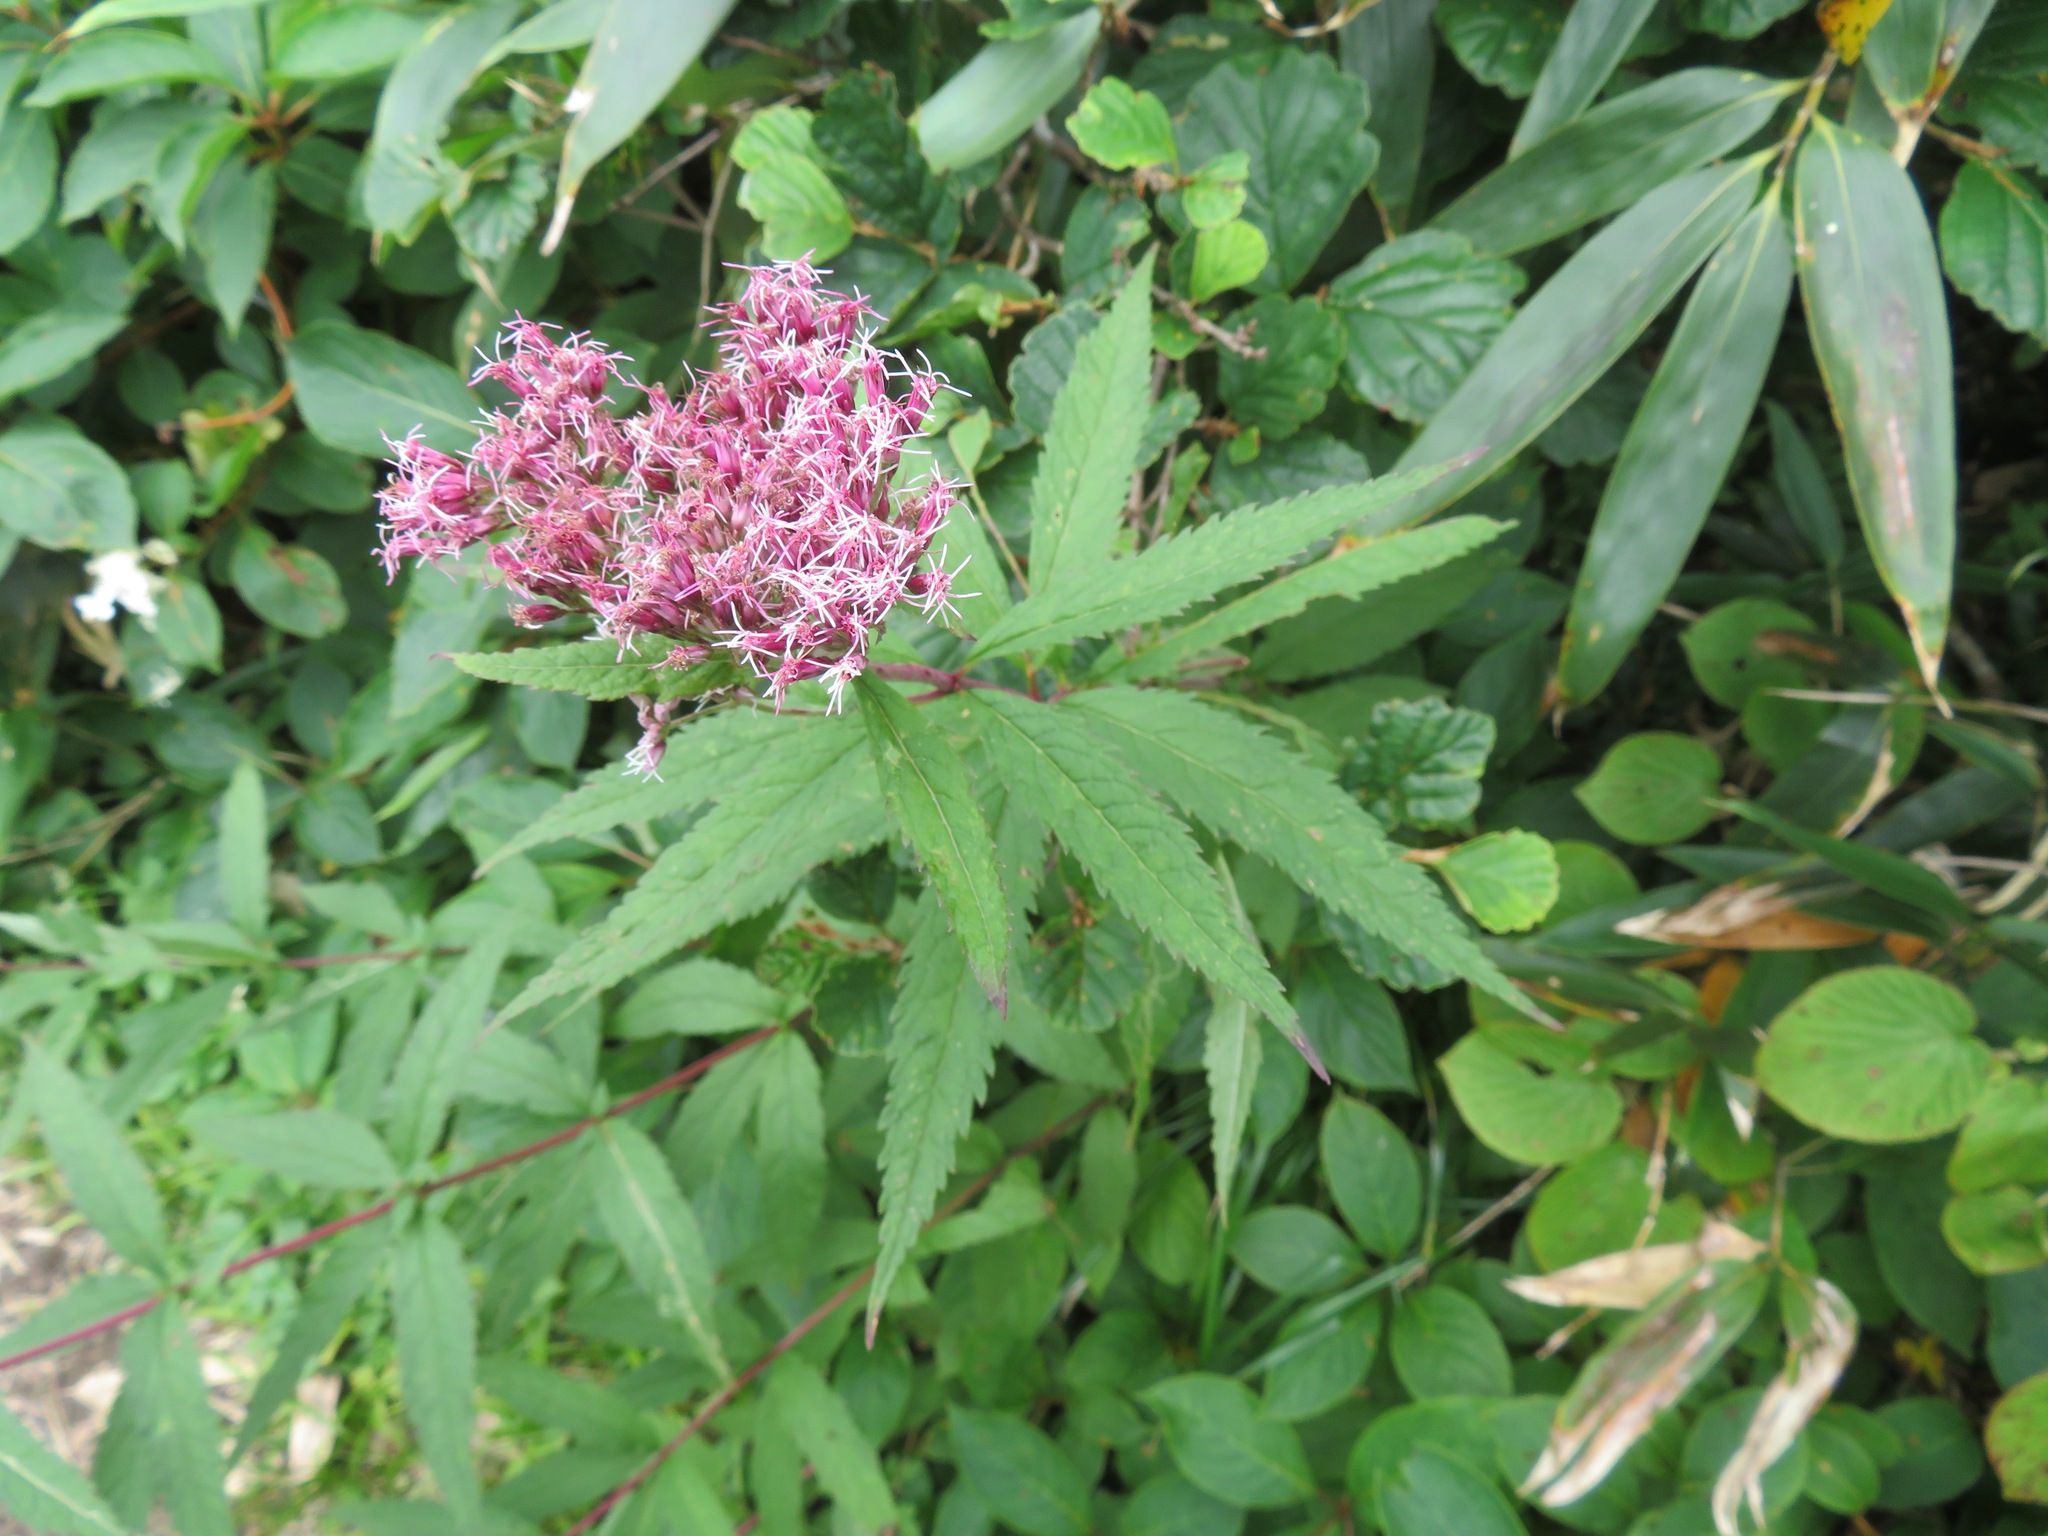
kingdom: Plantae
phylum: Tracheophyta
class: Magnoliopsida
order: Asterales
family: Asteraceae
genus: Eupatorium
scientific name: Eupatorium glehnii
